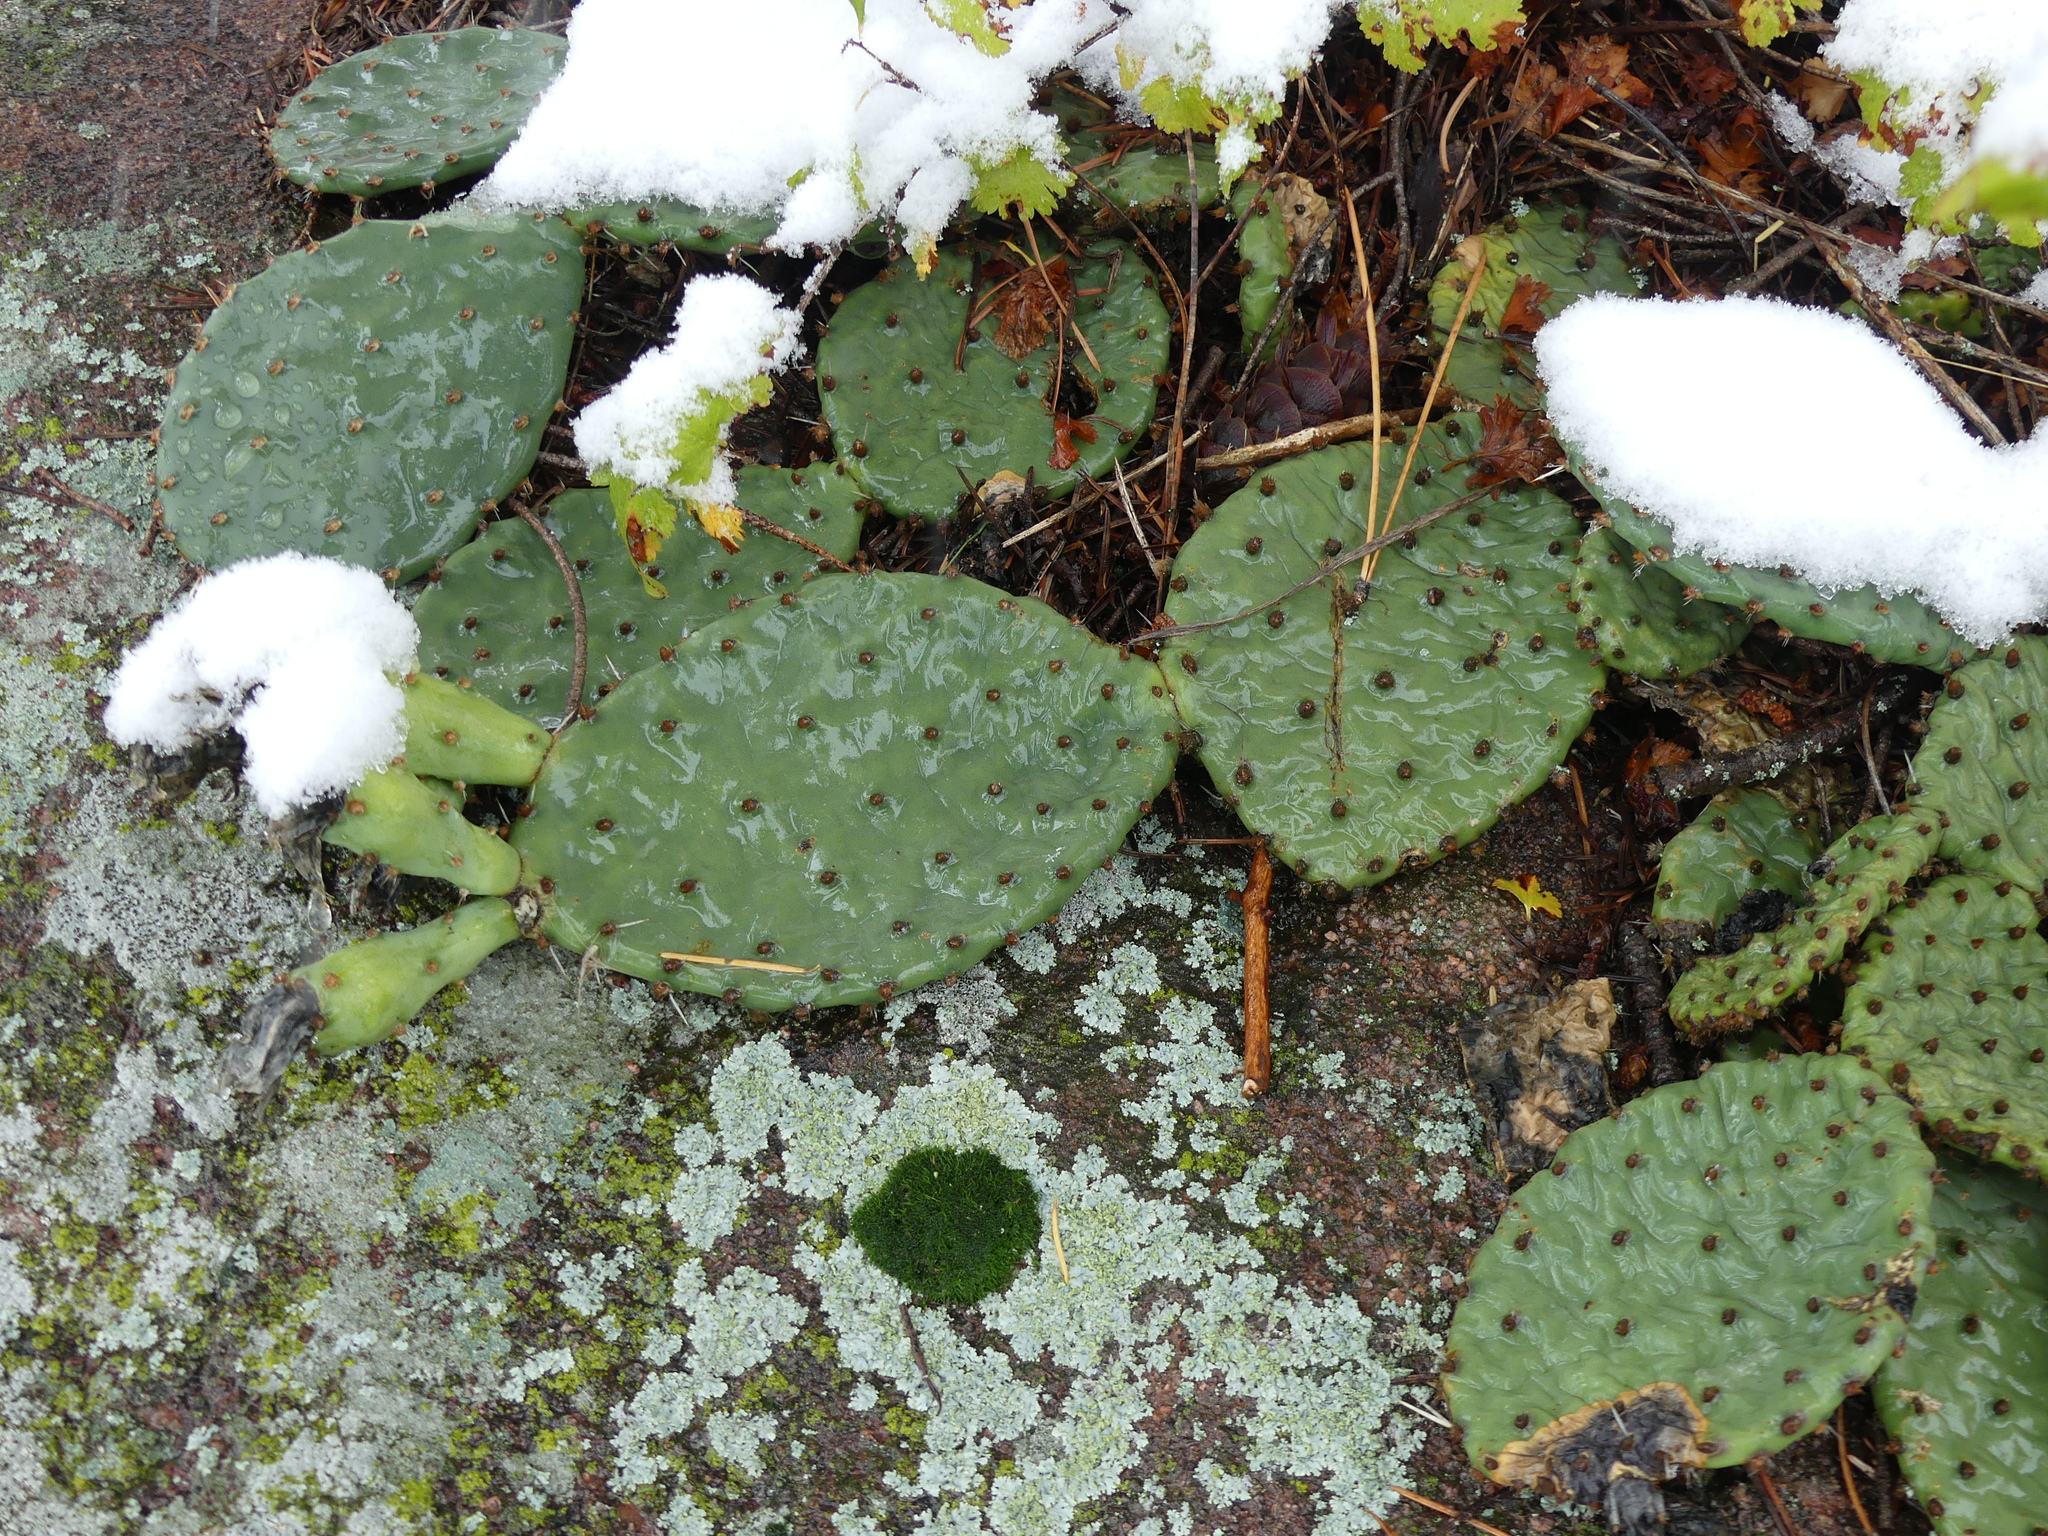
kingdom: Plantae
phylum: Tracheophyta
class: Magnoliopsida
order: Caryophyllales
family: Cactaceae
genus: Opuntia
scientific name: Opuntia macrorhiza
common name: Grassland pricklypear
